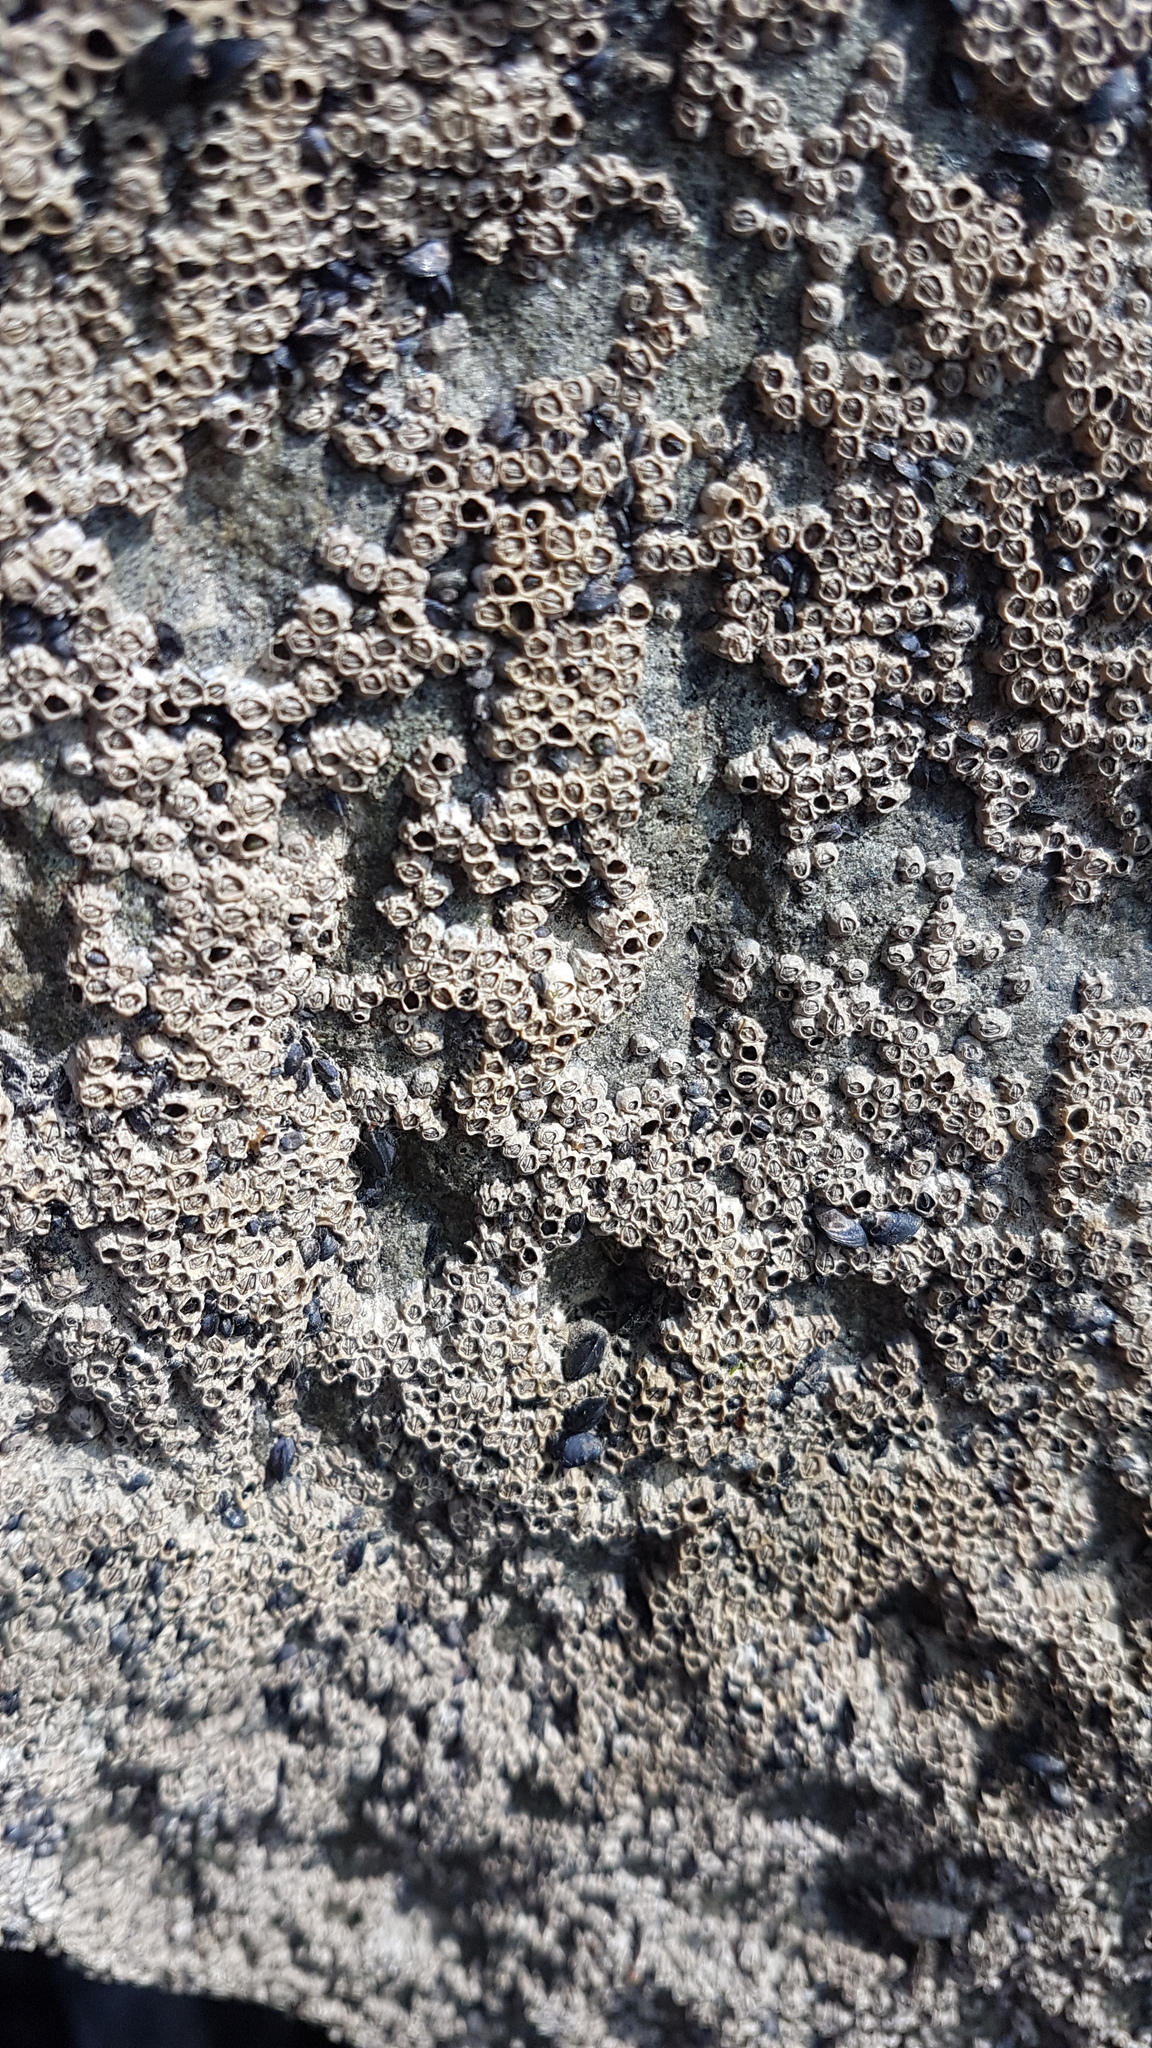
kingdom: Animalia
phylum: Arthropoda
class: Maxillopoda
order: Sessilia
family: Chthamalidae
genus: Chamaesipho
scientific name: Chamaesipho columna
